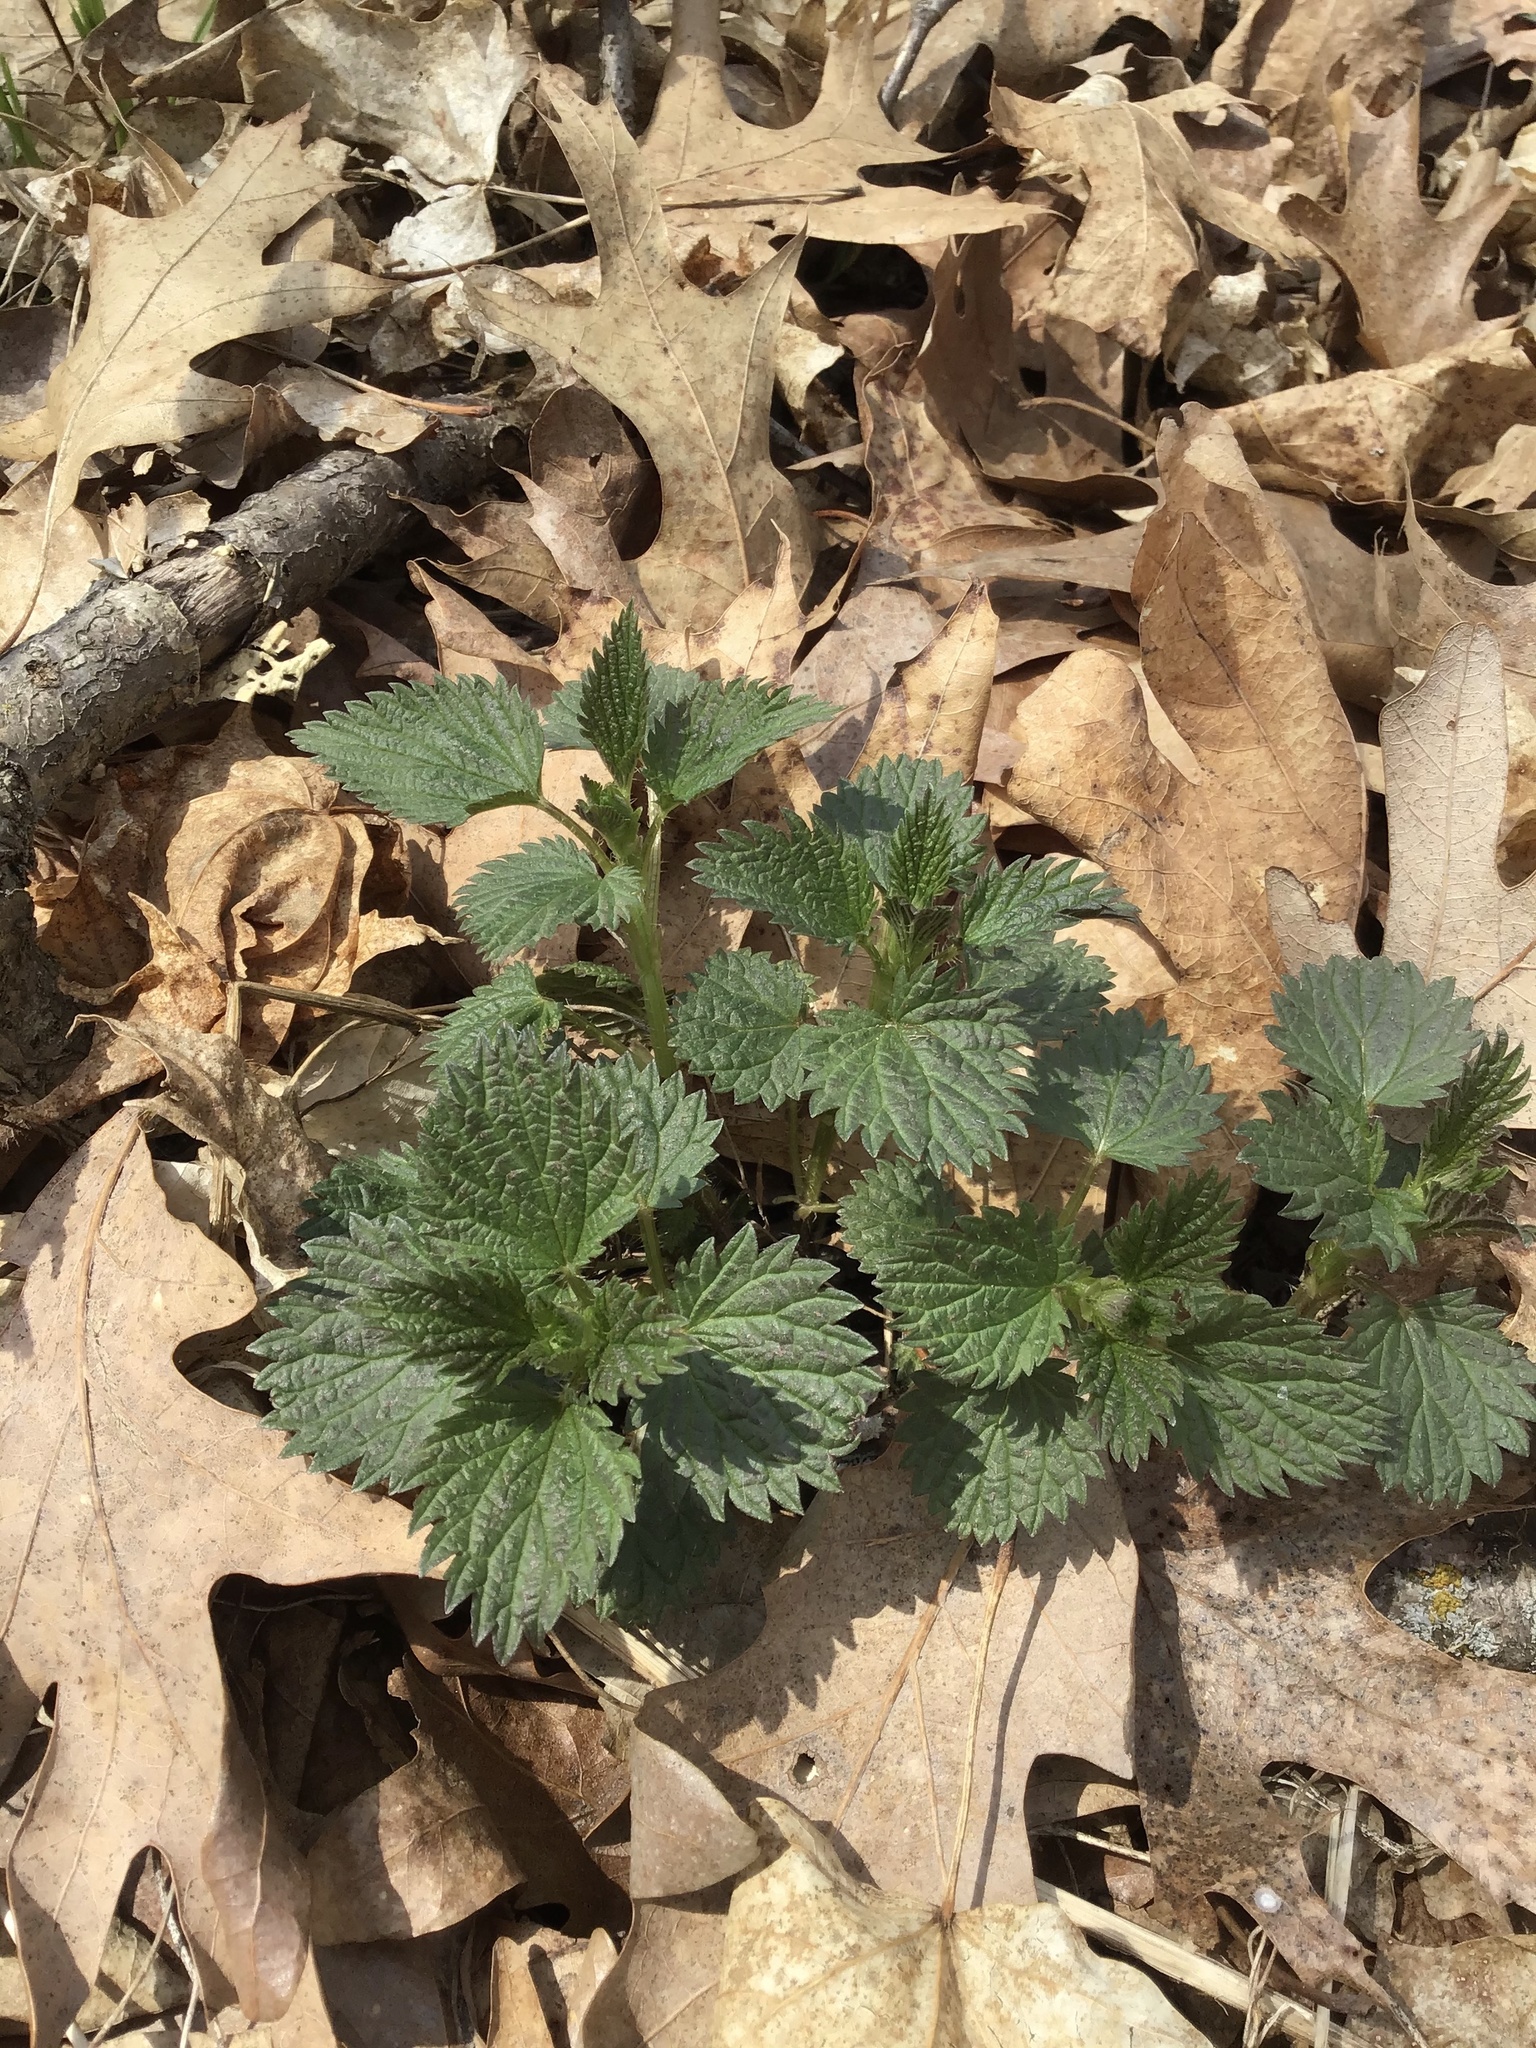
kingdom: Plantae
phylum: Tracheophyta
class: Magnoliopsida
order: Rosales
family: Urticaceae
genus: Urtica
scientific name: Urtica dioica
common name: Common nettle
